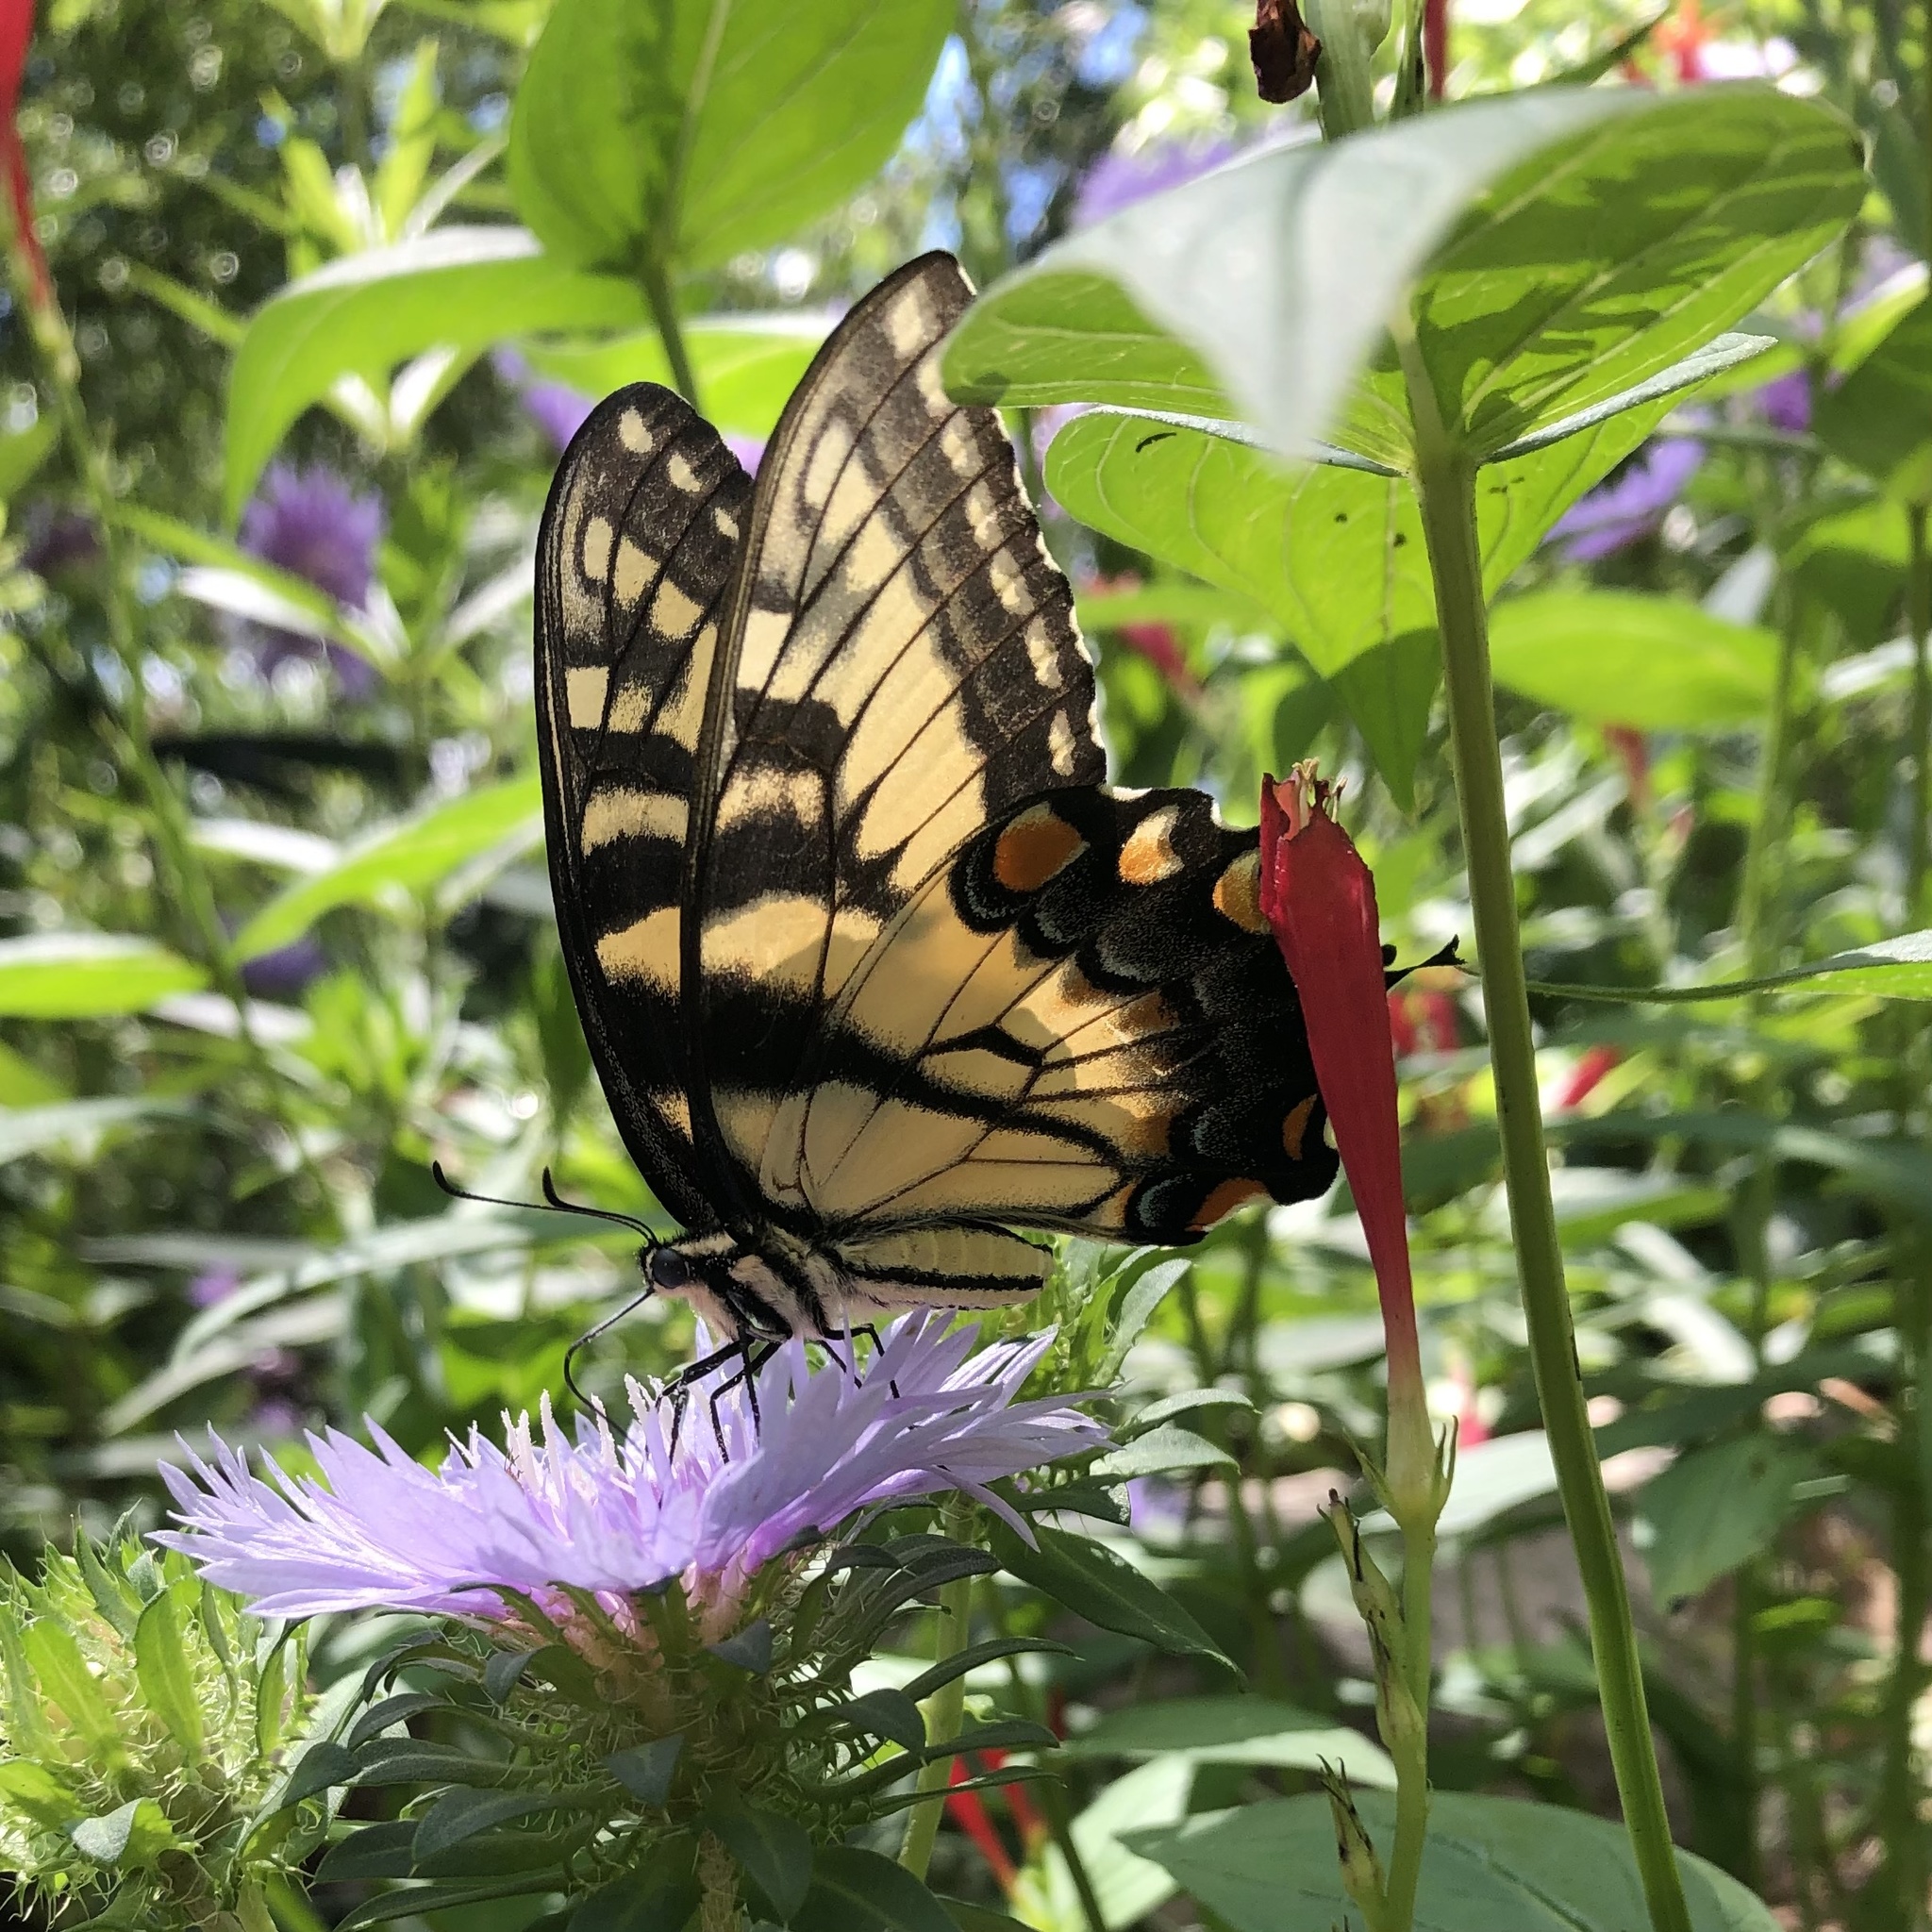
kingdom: Animalia
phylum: Arthropoda
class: Insecta
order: Lepidoptera
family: Papilionidae
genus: Papilio
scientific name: Papilio glaucus
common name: Tiger swallowtail
